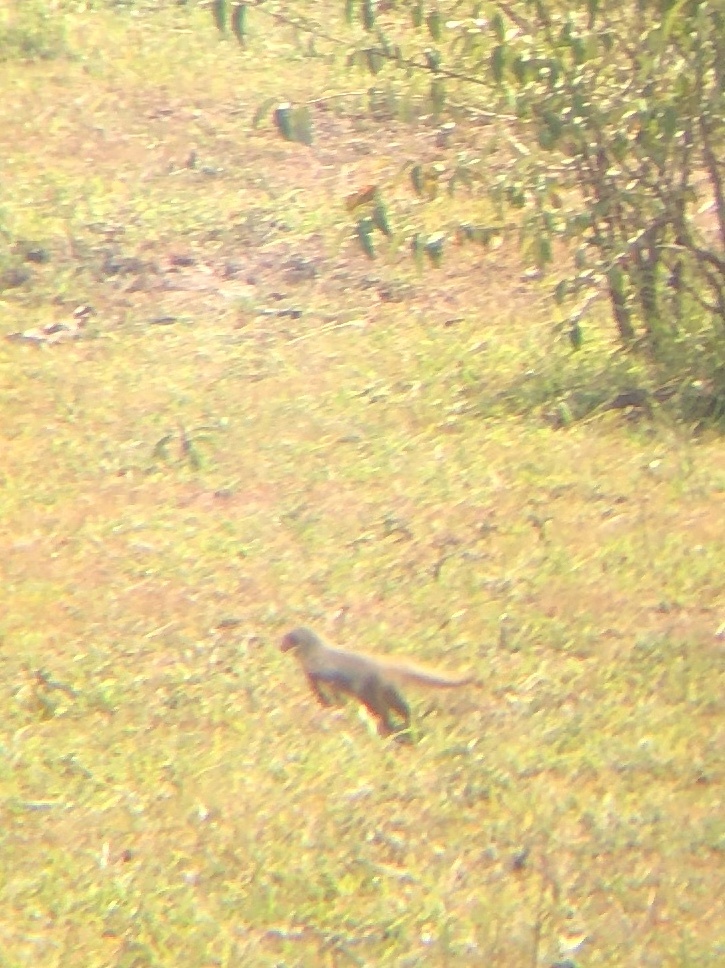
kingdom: Animalia
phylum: Chordata
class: Mammalia
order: Carnivora
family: Herpestidae
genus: Helogale
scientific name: Helogale parvula
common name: Common dwarf mongoose
